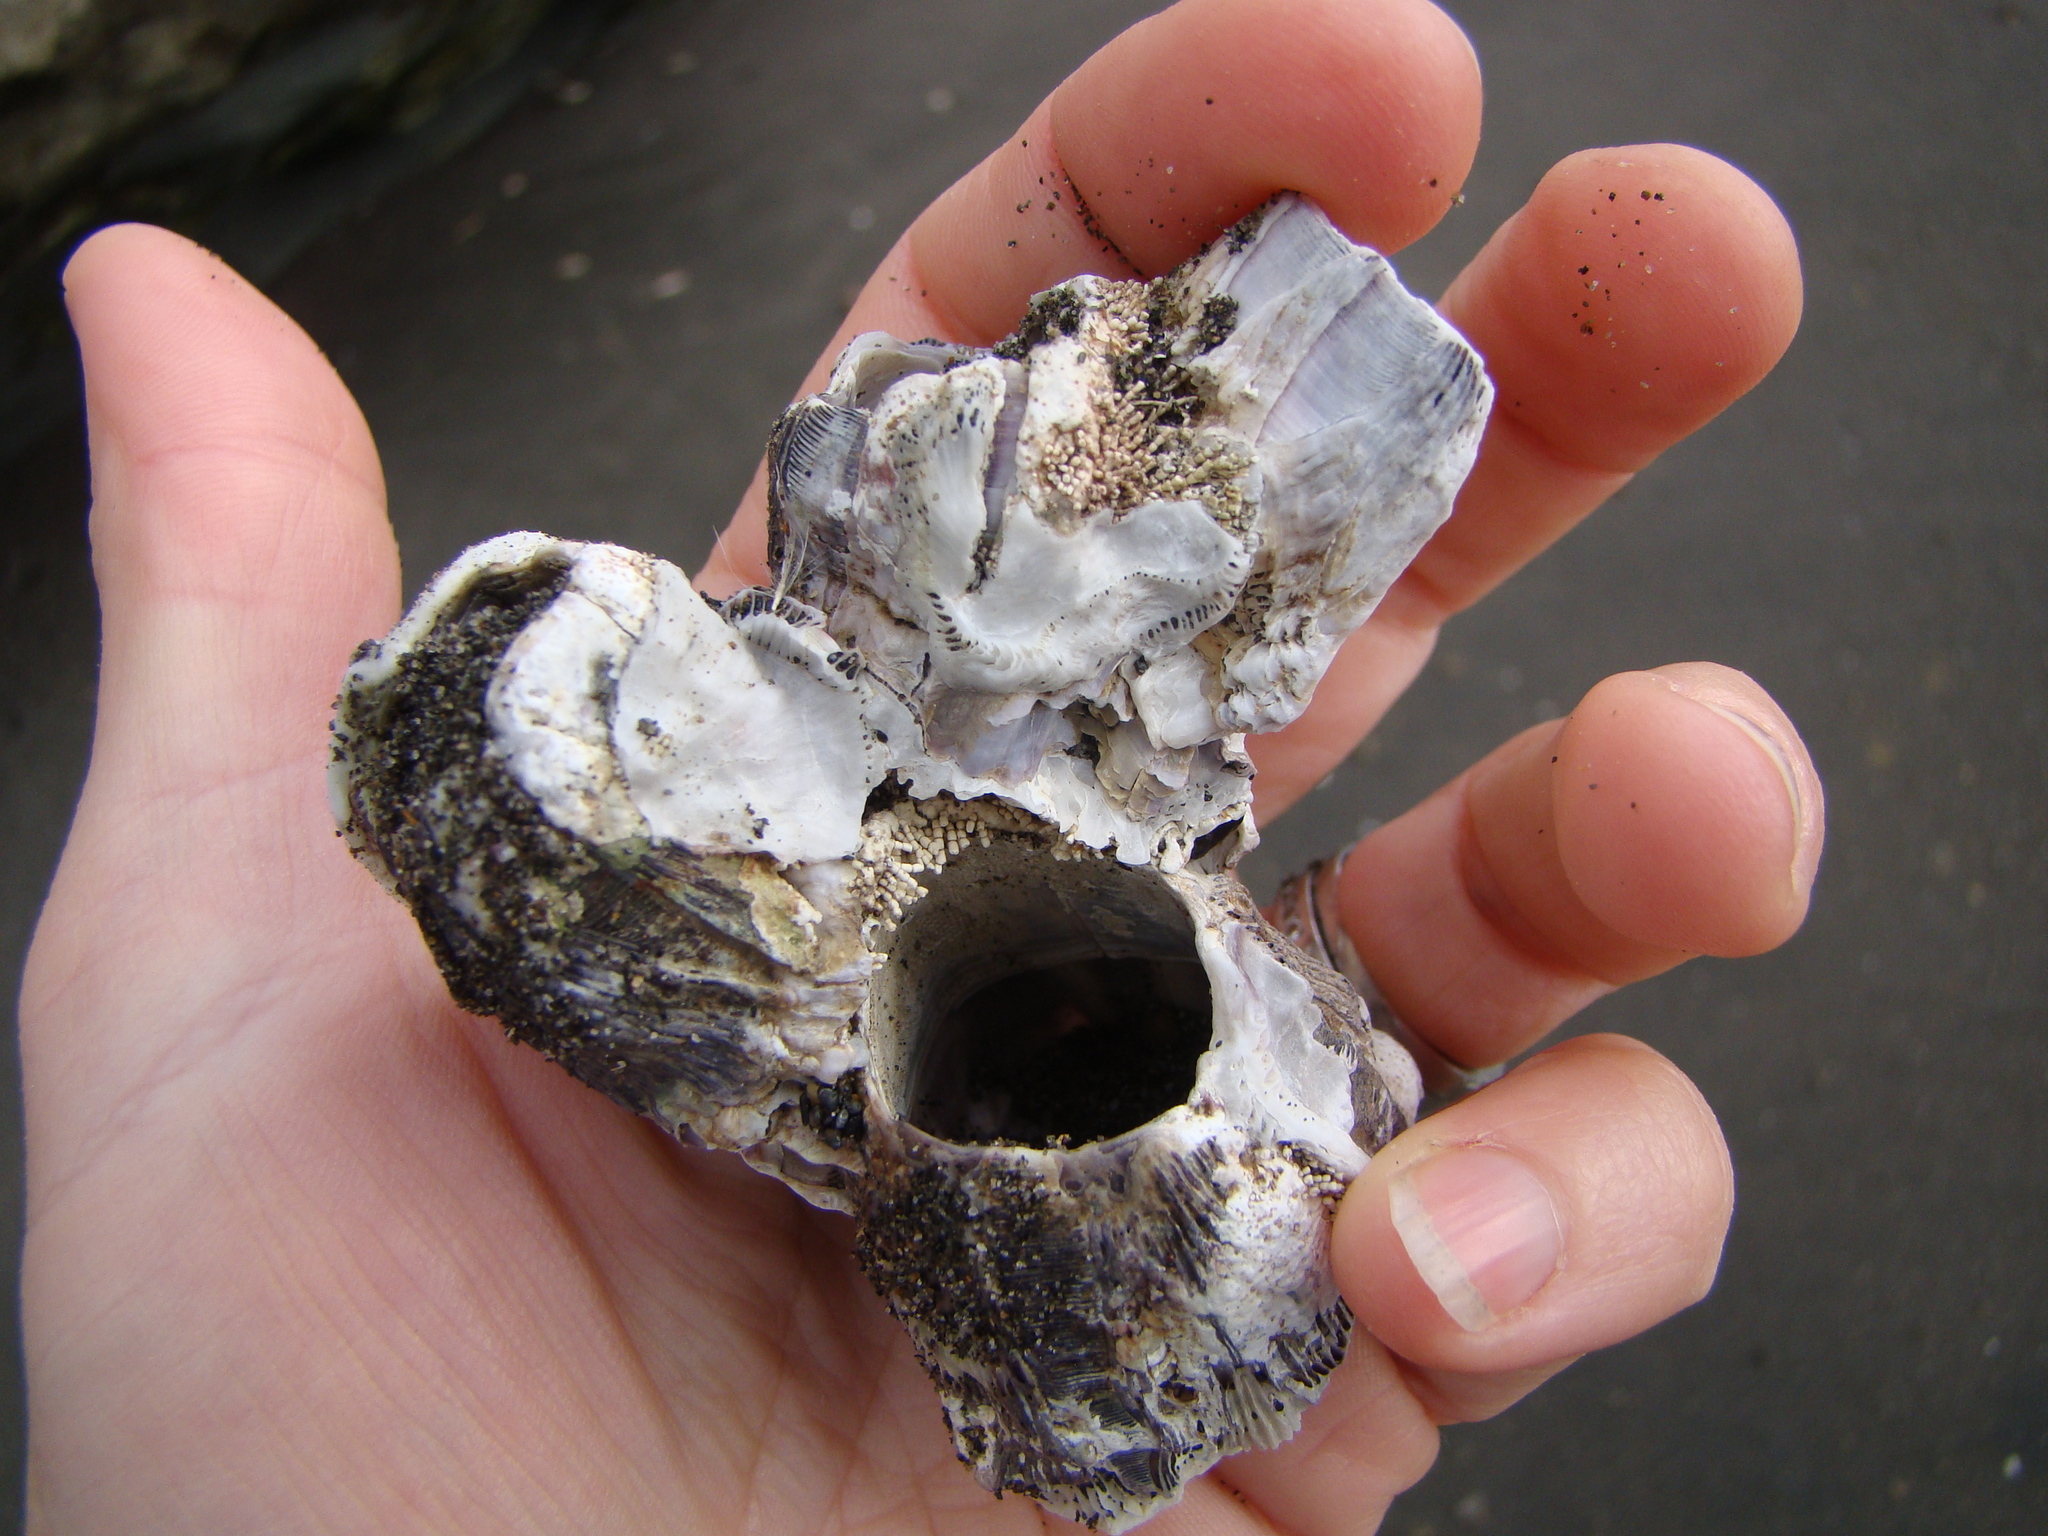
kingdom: Animalia
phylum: Arthropoda
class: Maxillopoda
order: Sessilia
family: Balanidae
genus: Austromegabalanus
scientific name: Austromegabalanus nigrescens
